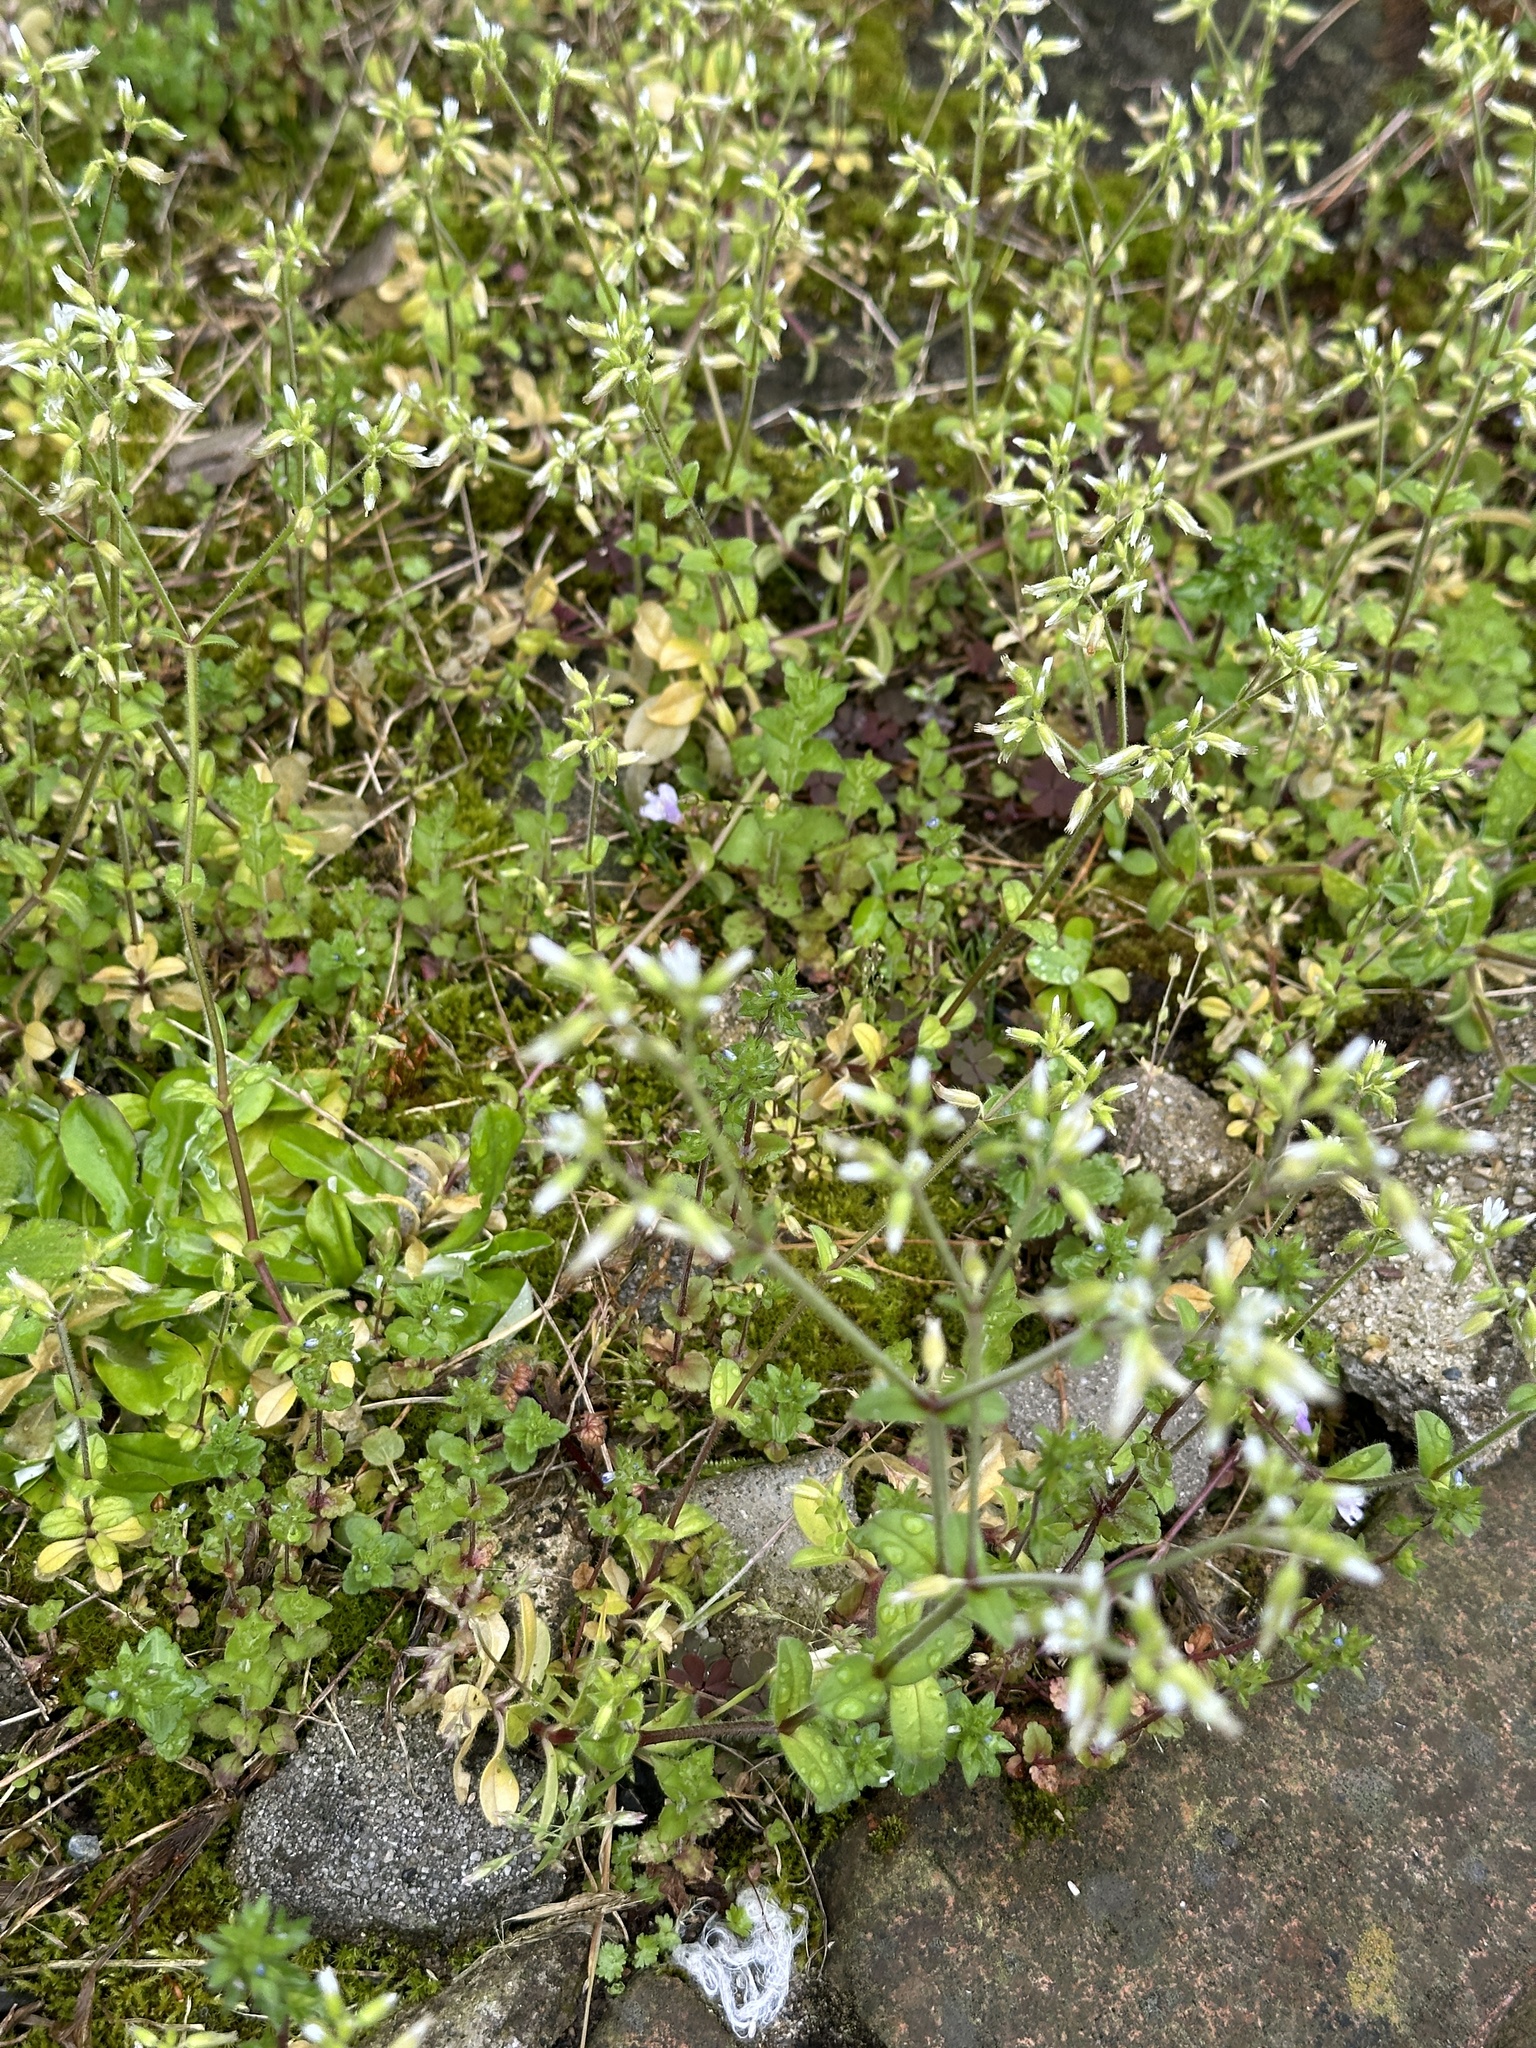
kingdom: Plantae
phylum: Tracheophyta
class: Magnoliopsida
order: Caryophyllales
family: Caryophyllaceae
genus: Cerastium
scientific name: Cerastium glomeratum
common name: Sticky chickweed
